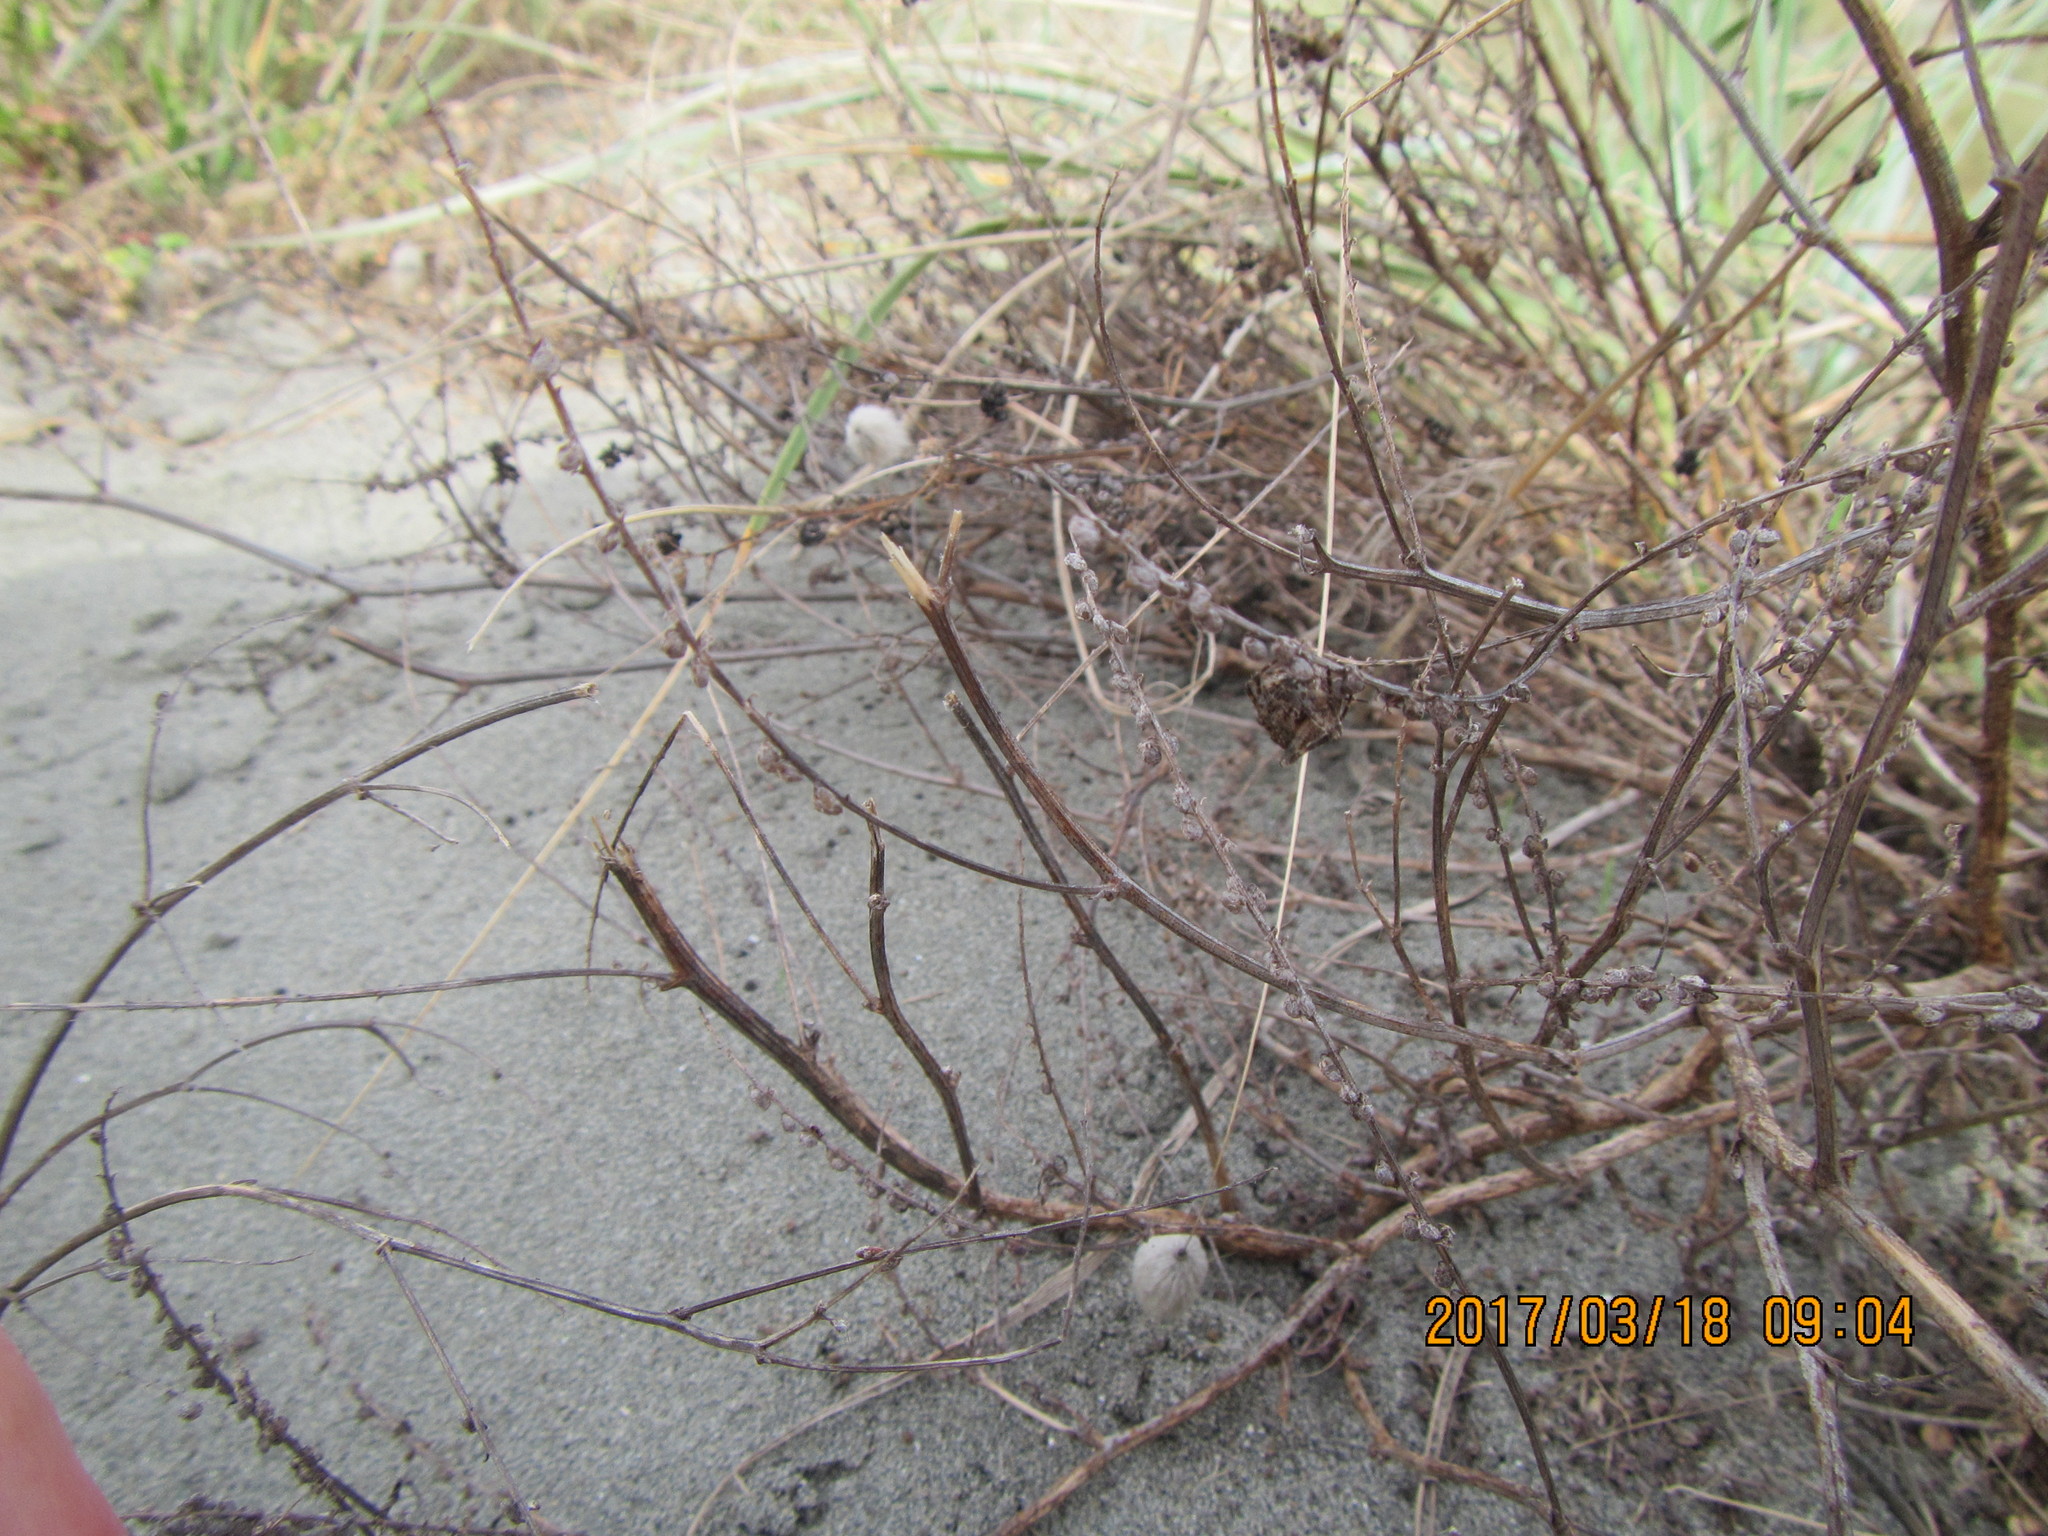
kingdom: Animalia
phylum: Arthropoda
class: Arachnida
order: Araneae
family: Araneidae
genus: Novakiella
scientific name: Novakiella trituberculosa
